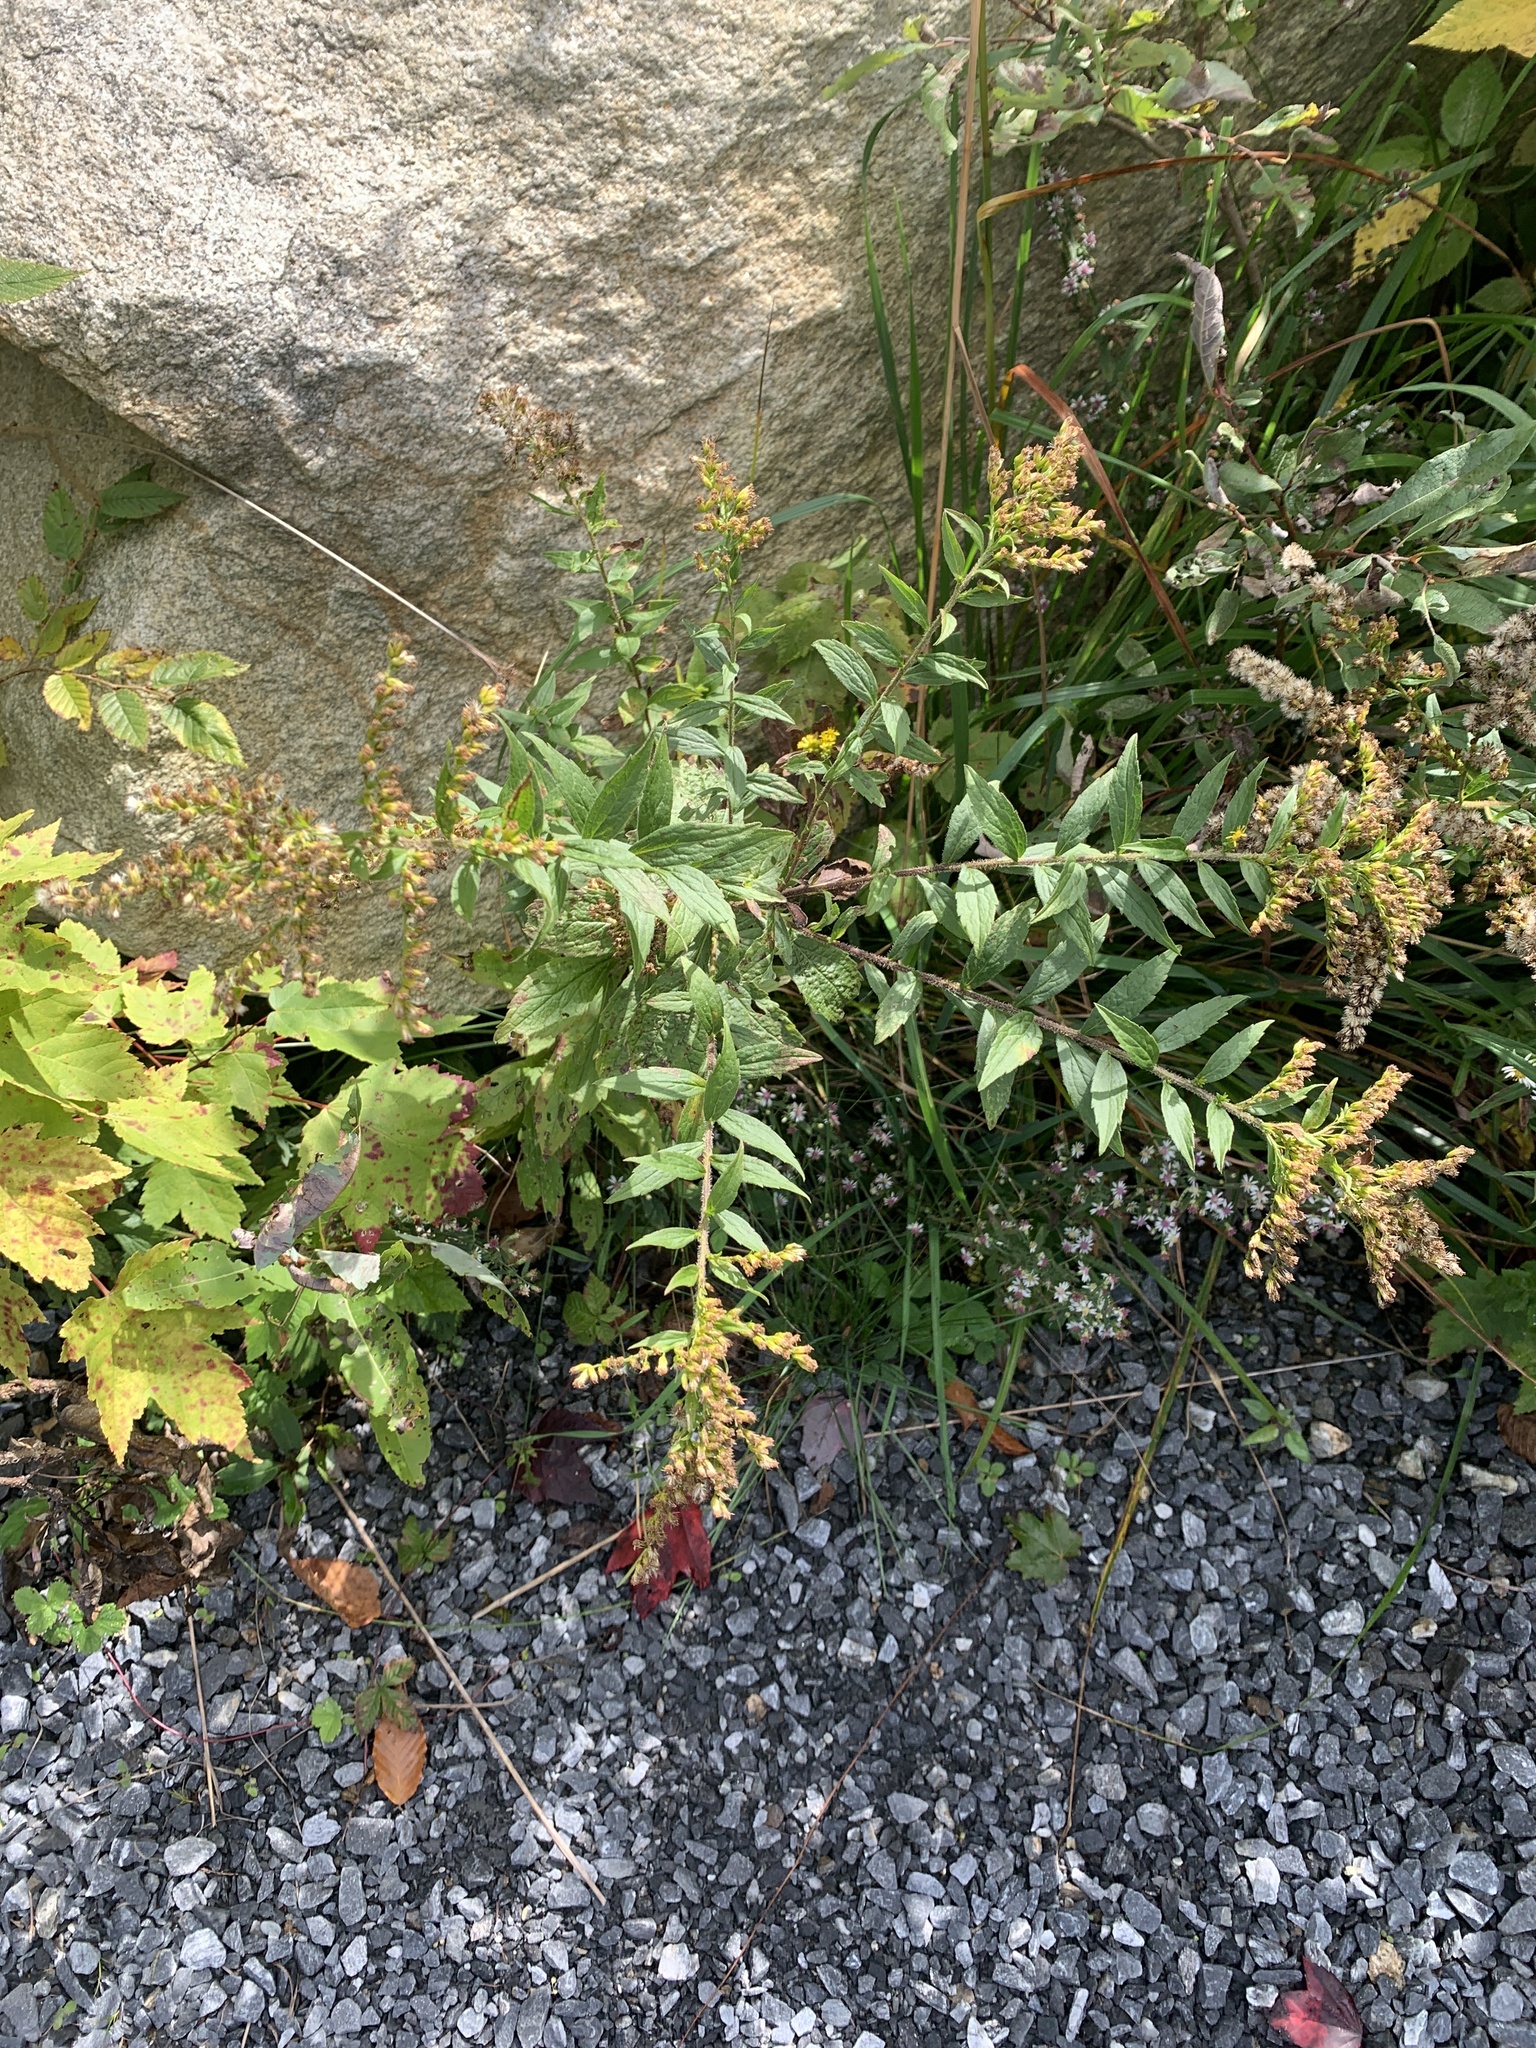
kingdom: Plantae
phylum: Tracheophyta
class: Magnoliopsida
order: Asterales
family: Asteraceae
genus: Symphyotrichum
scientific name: Symphyotrichum lateriflorum
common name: Calico aster
